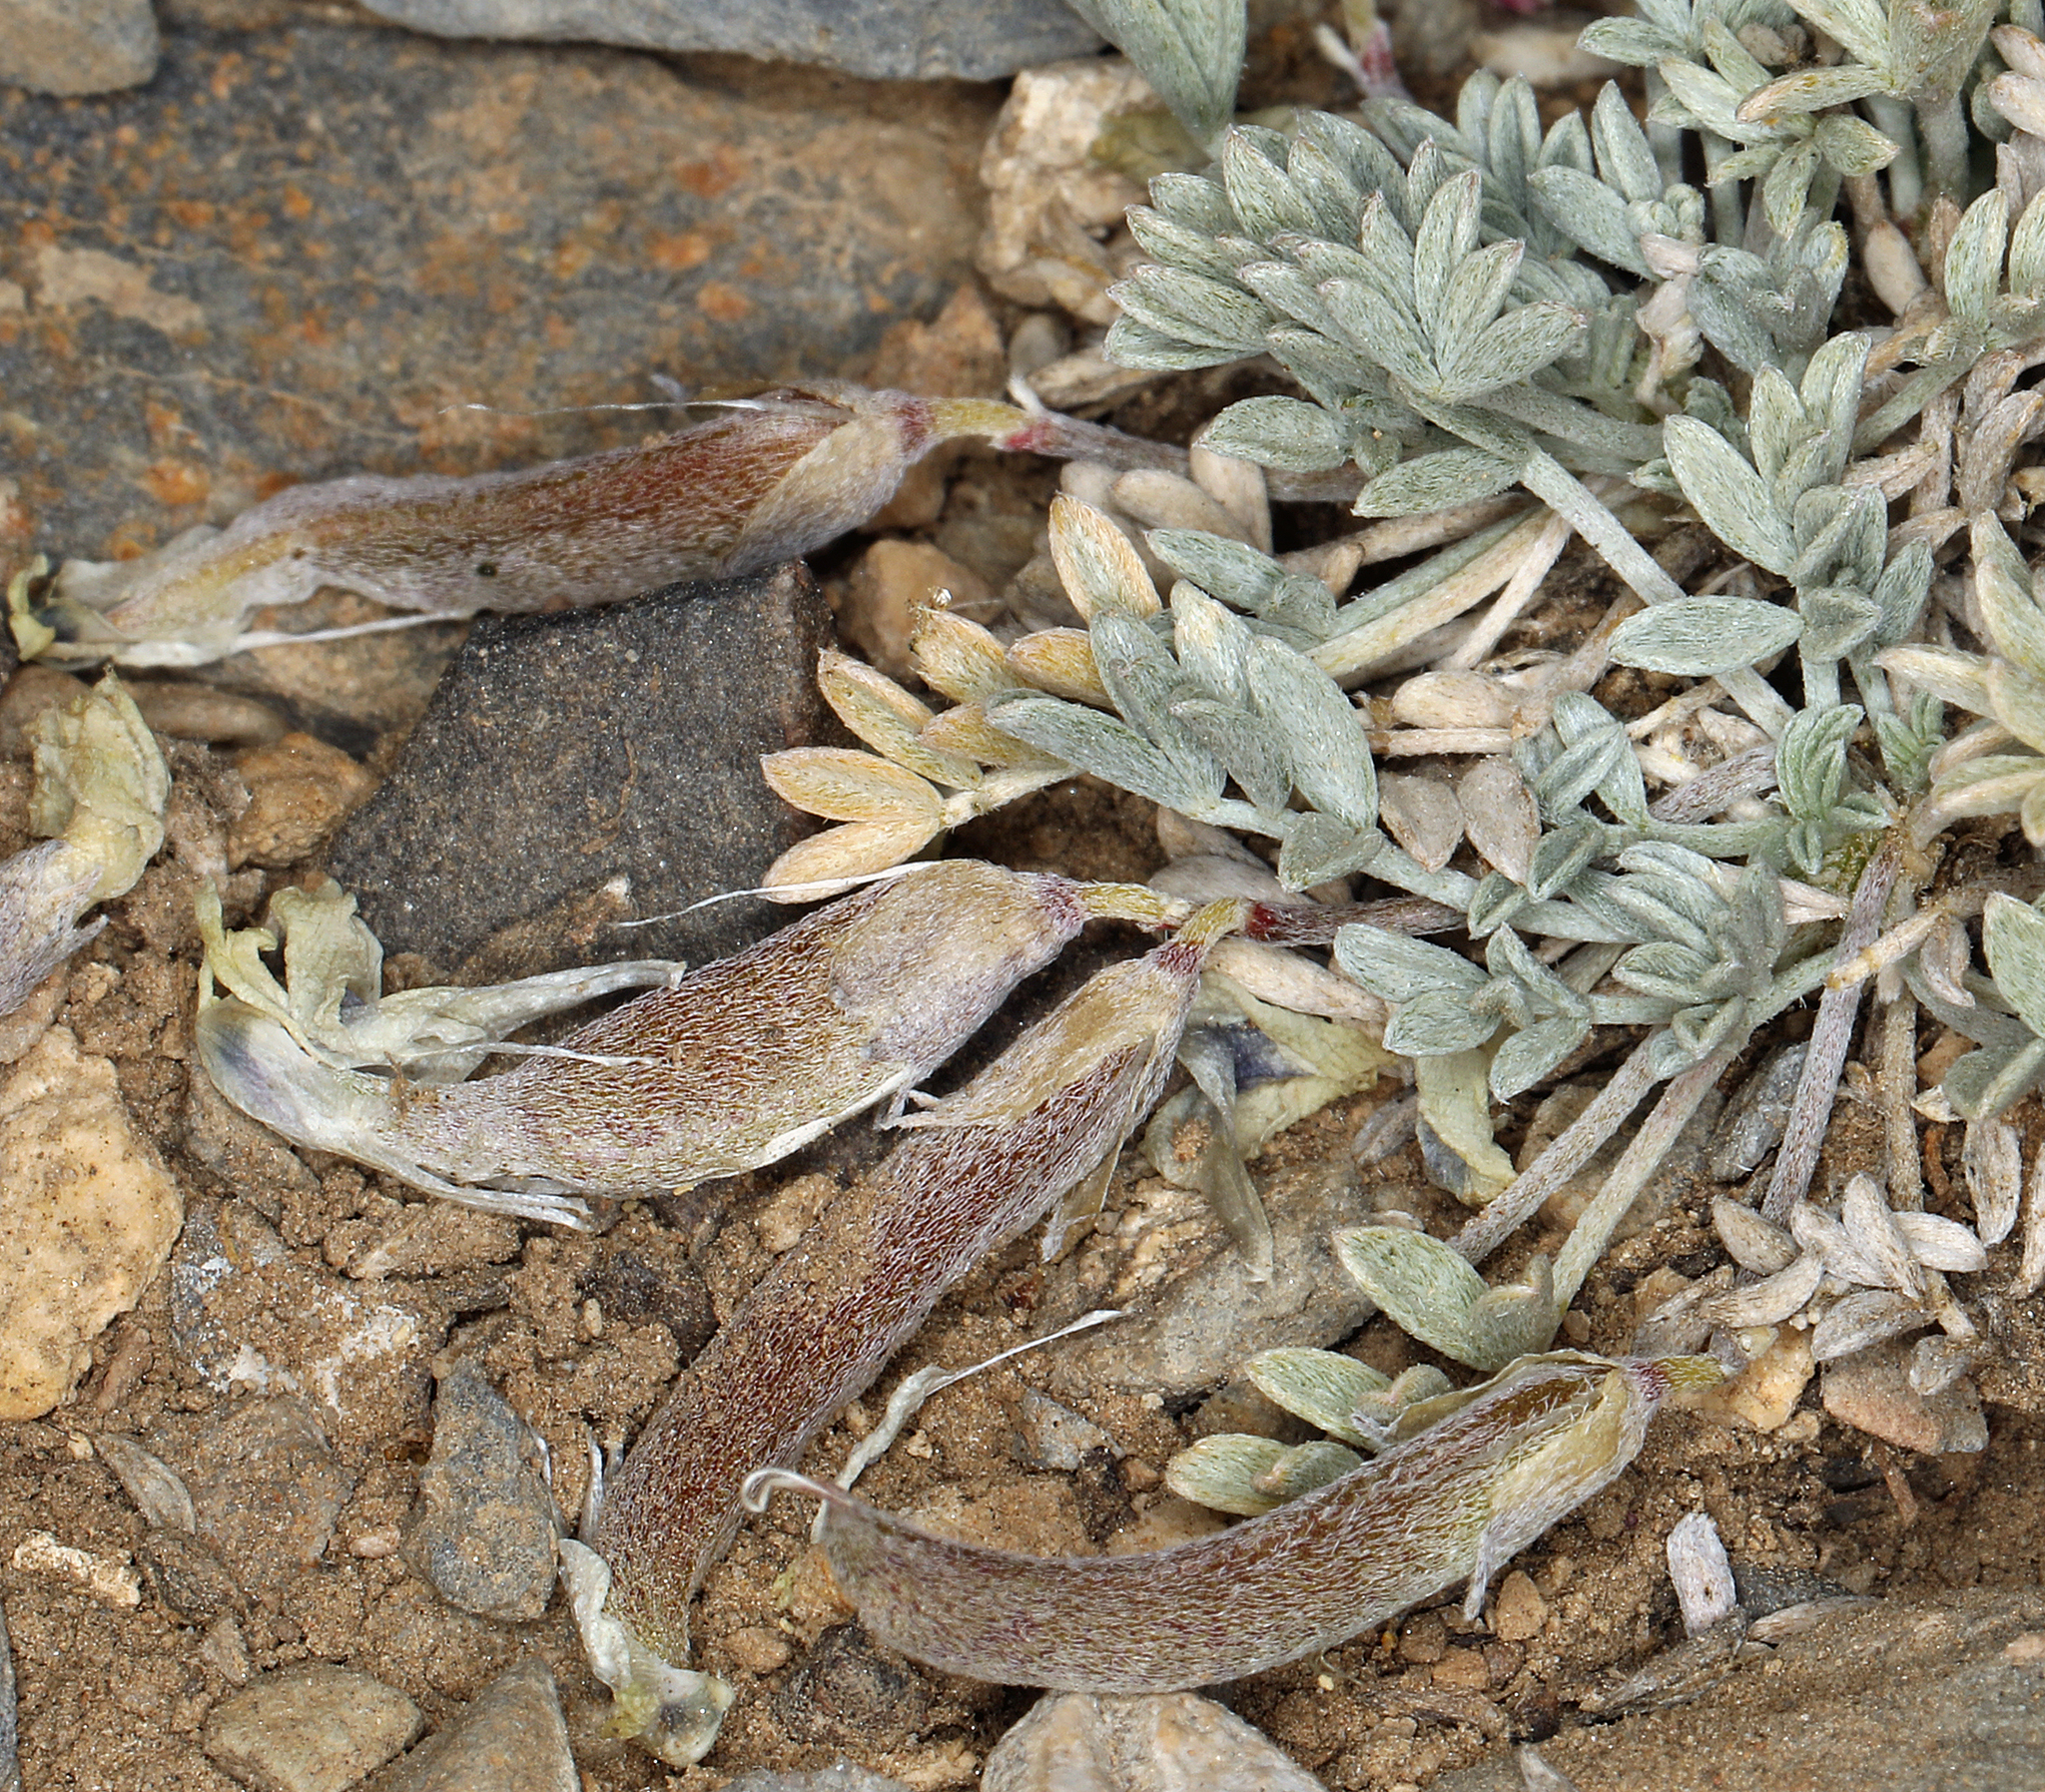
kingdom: Plantae
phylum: Tracheophyta
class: Magnoliopsida
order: Fabales
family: Fabaceae
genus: Astragalus
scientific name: Astragalus calycosus
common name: King's milkvetch
